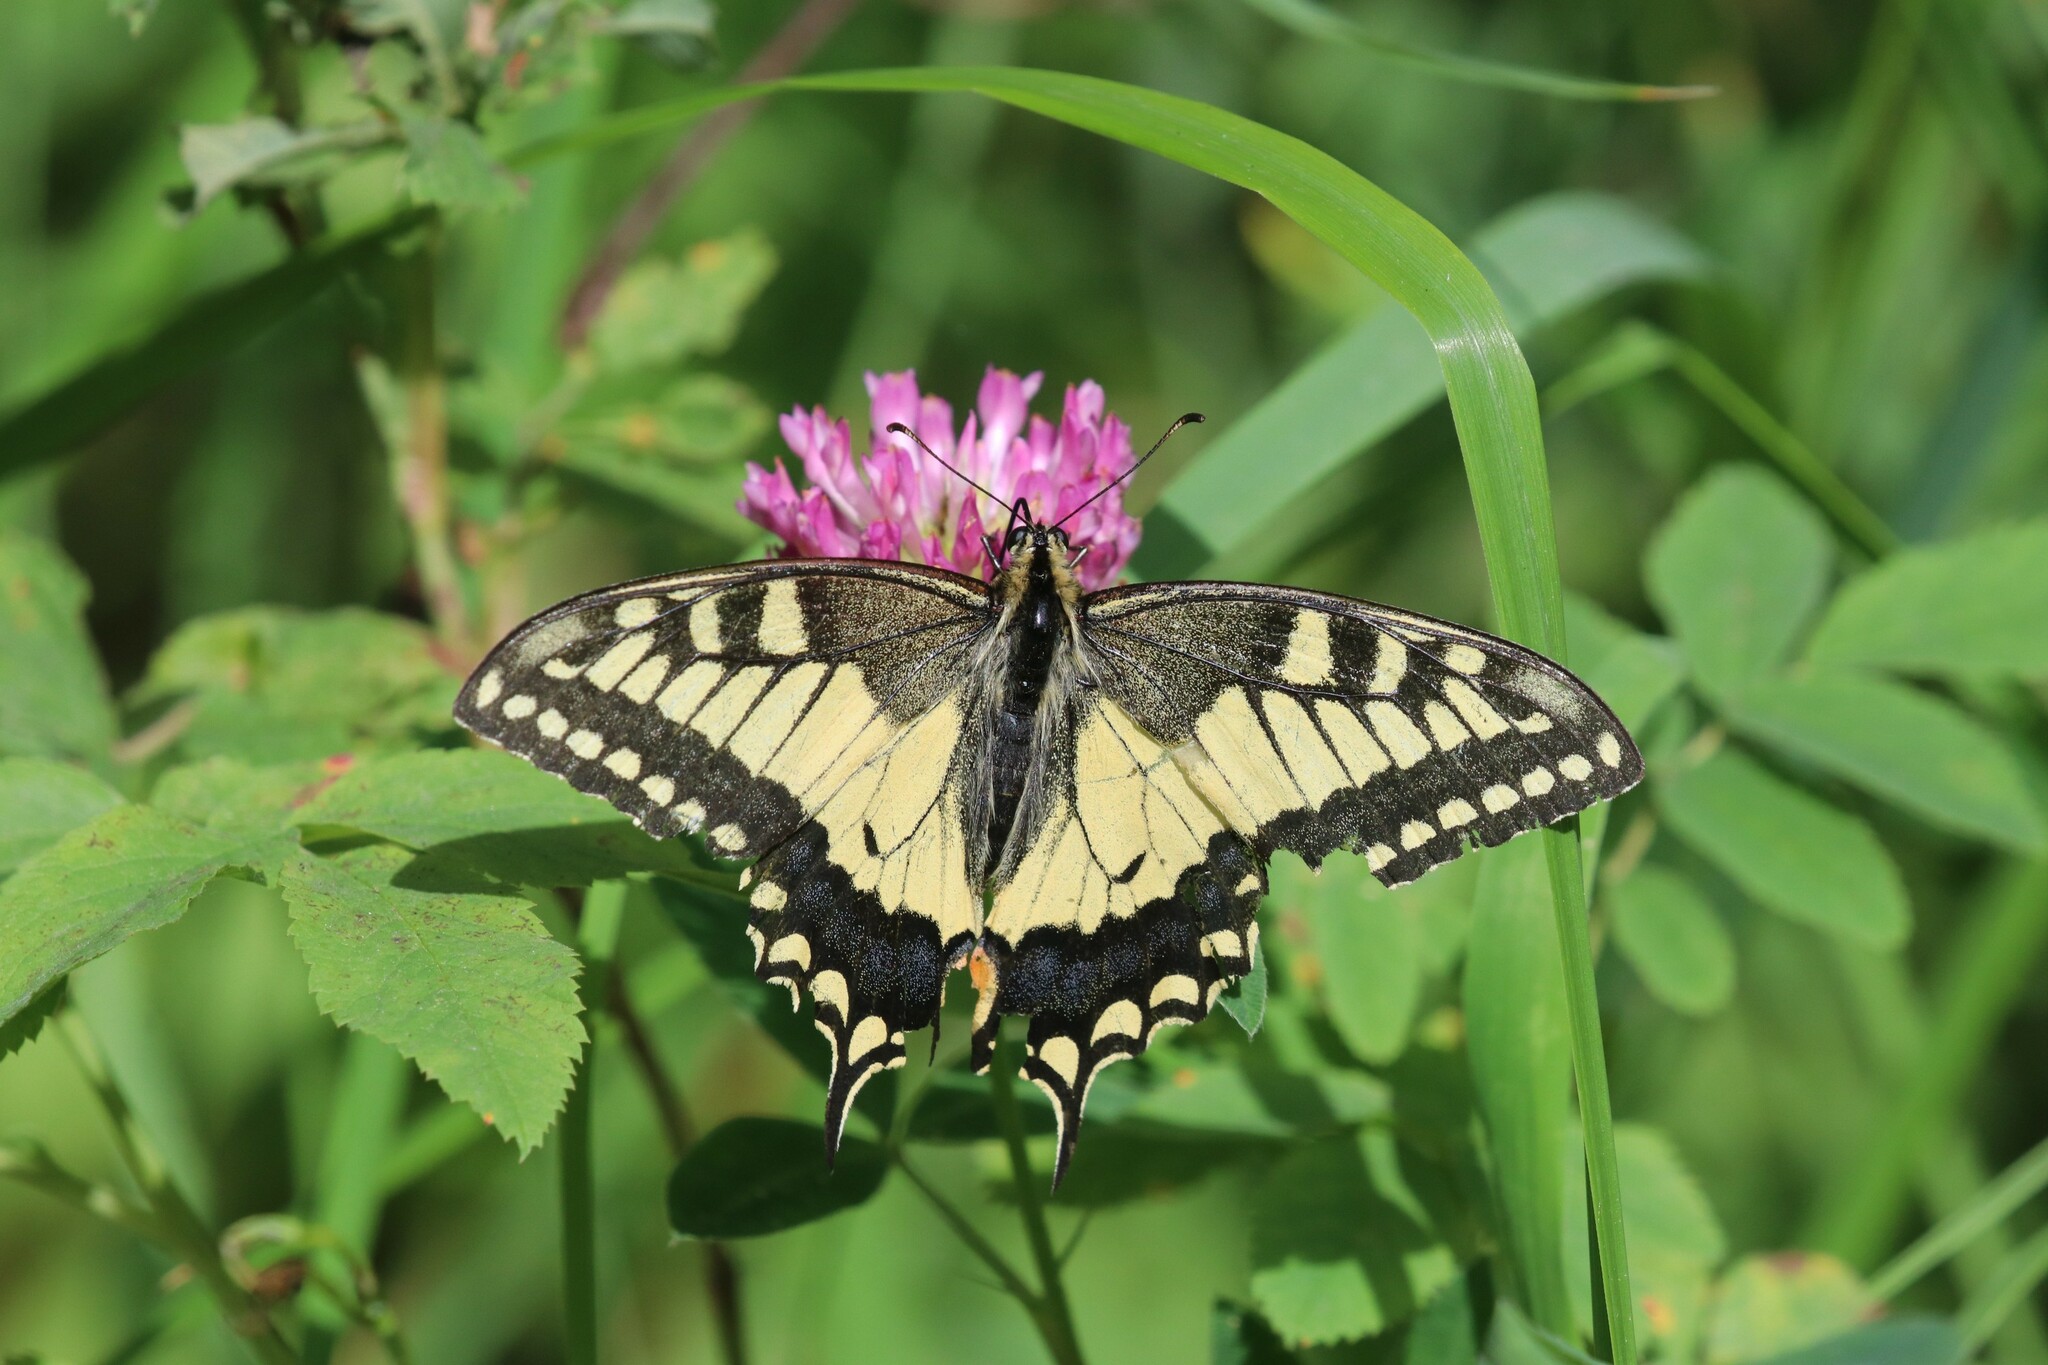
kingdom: Animalia
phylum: Arthropoda
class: Insecta
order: Lepidoptera
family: Papilionidae
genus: Papilio
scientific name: Papilio machaon
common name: Swallowtail
